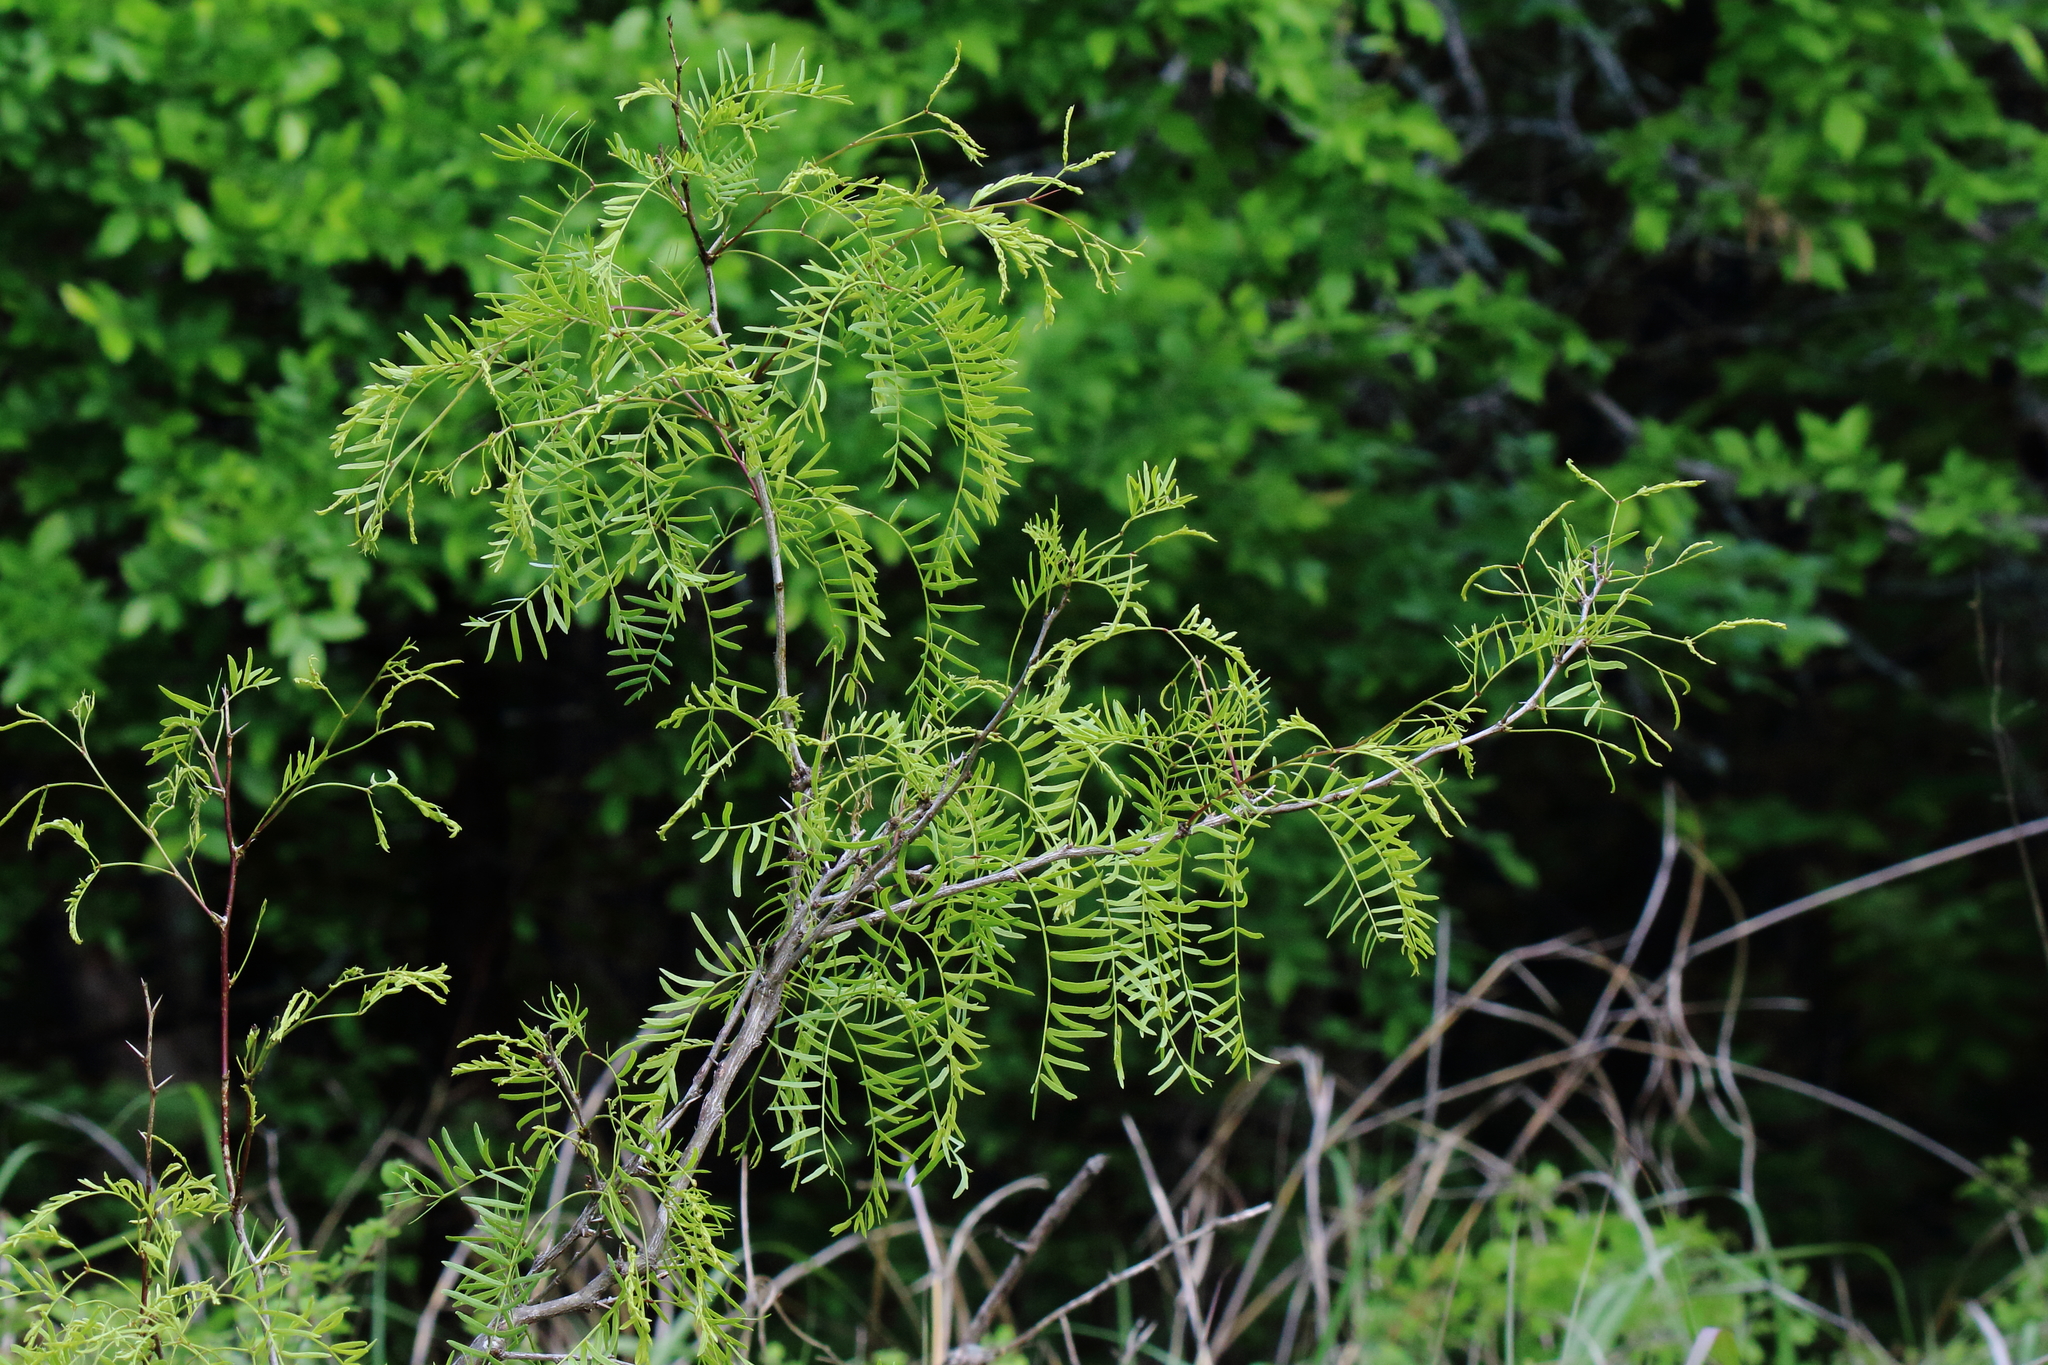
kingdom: Plantae
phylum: Tracheophyta
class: Magnoliopsida
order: Fabales
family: Fabaceae
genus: Prosopis
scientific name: Prosopis glandulosa
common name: Honey mesquite
